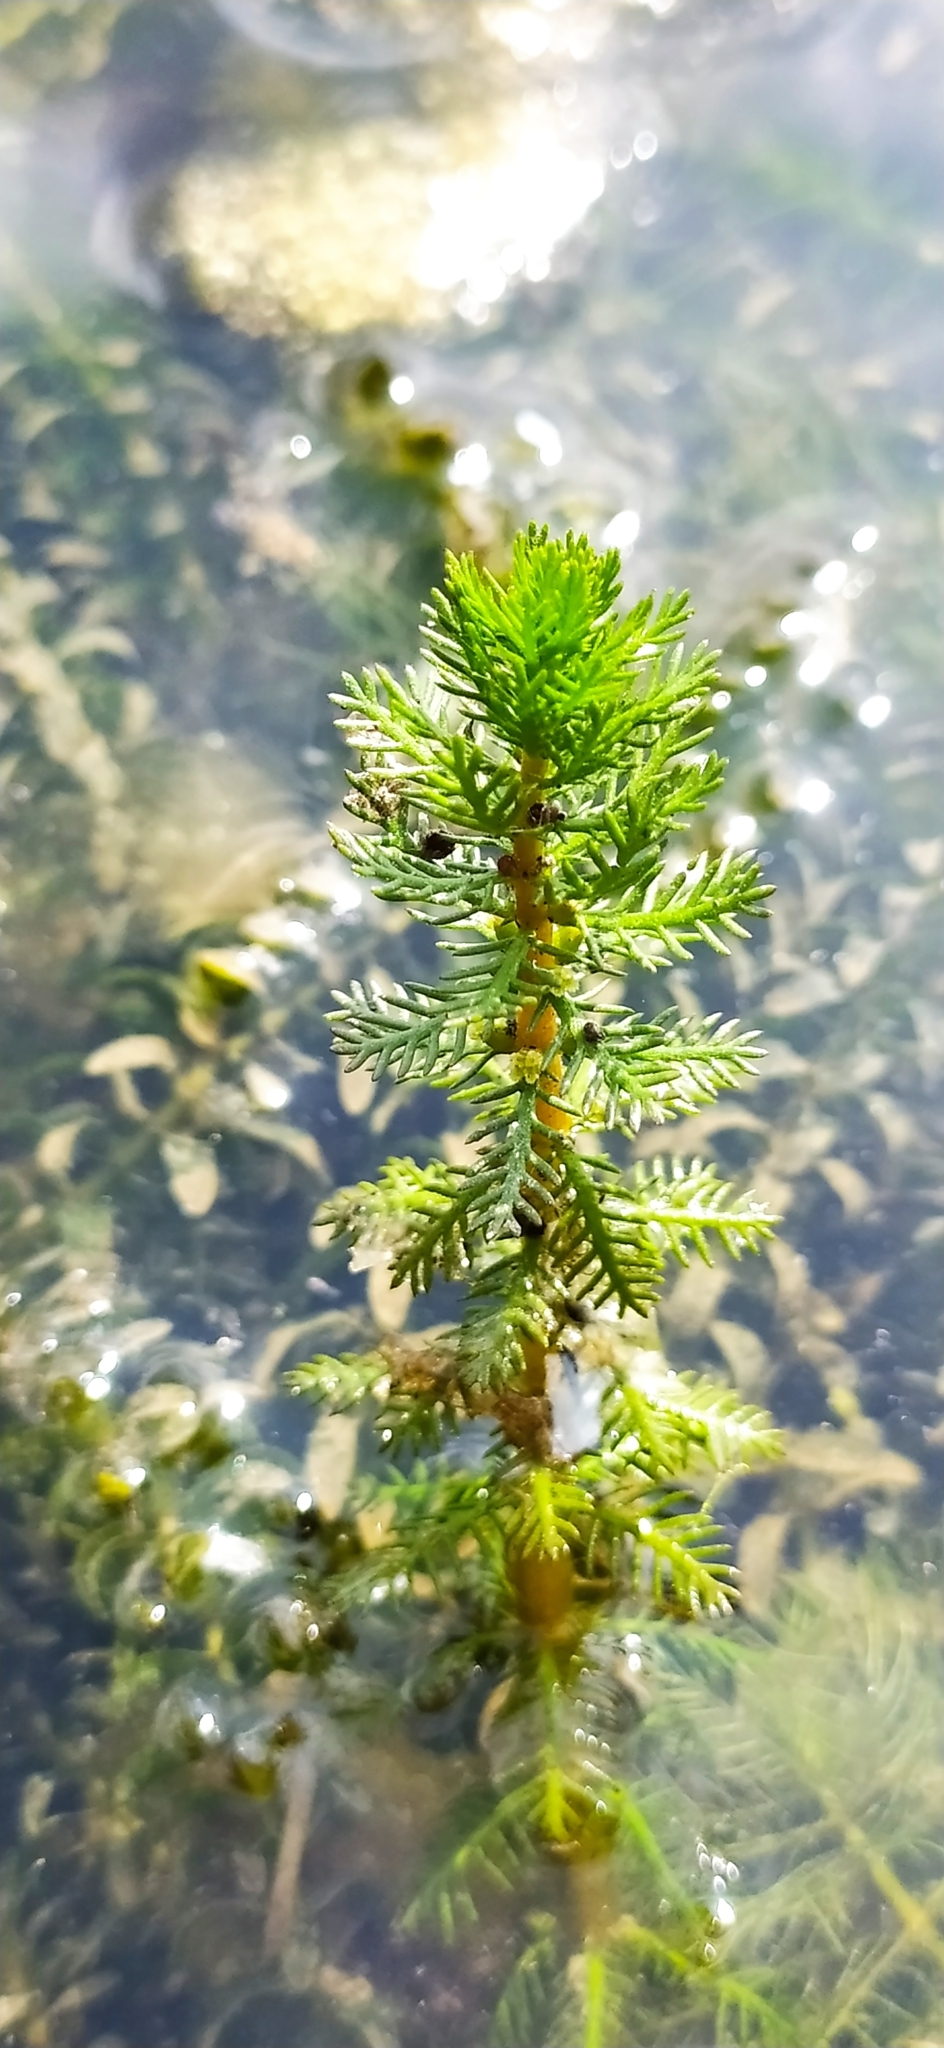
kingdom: Plantae
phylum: Tracheophyta
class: Magnoliopsida
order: Saxifragales
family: Haloragaceae
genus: Myriophyllum
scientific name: Myriophyllum verticillatum
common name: Whorled water-milfoil
